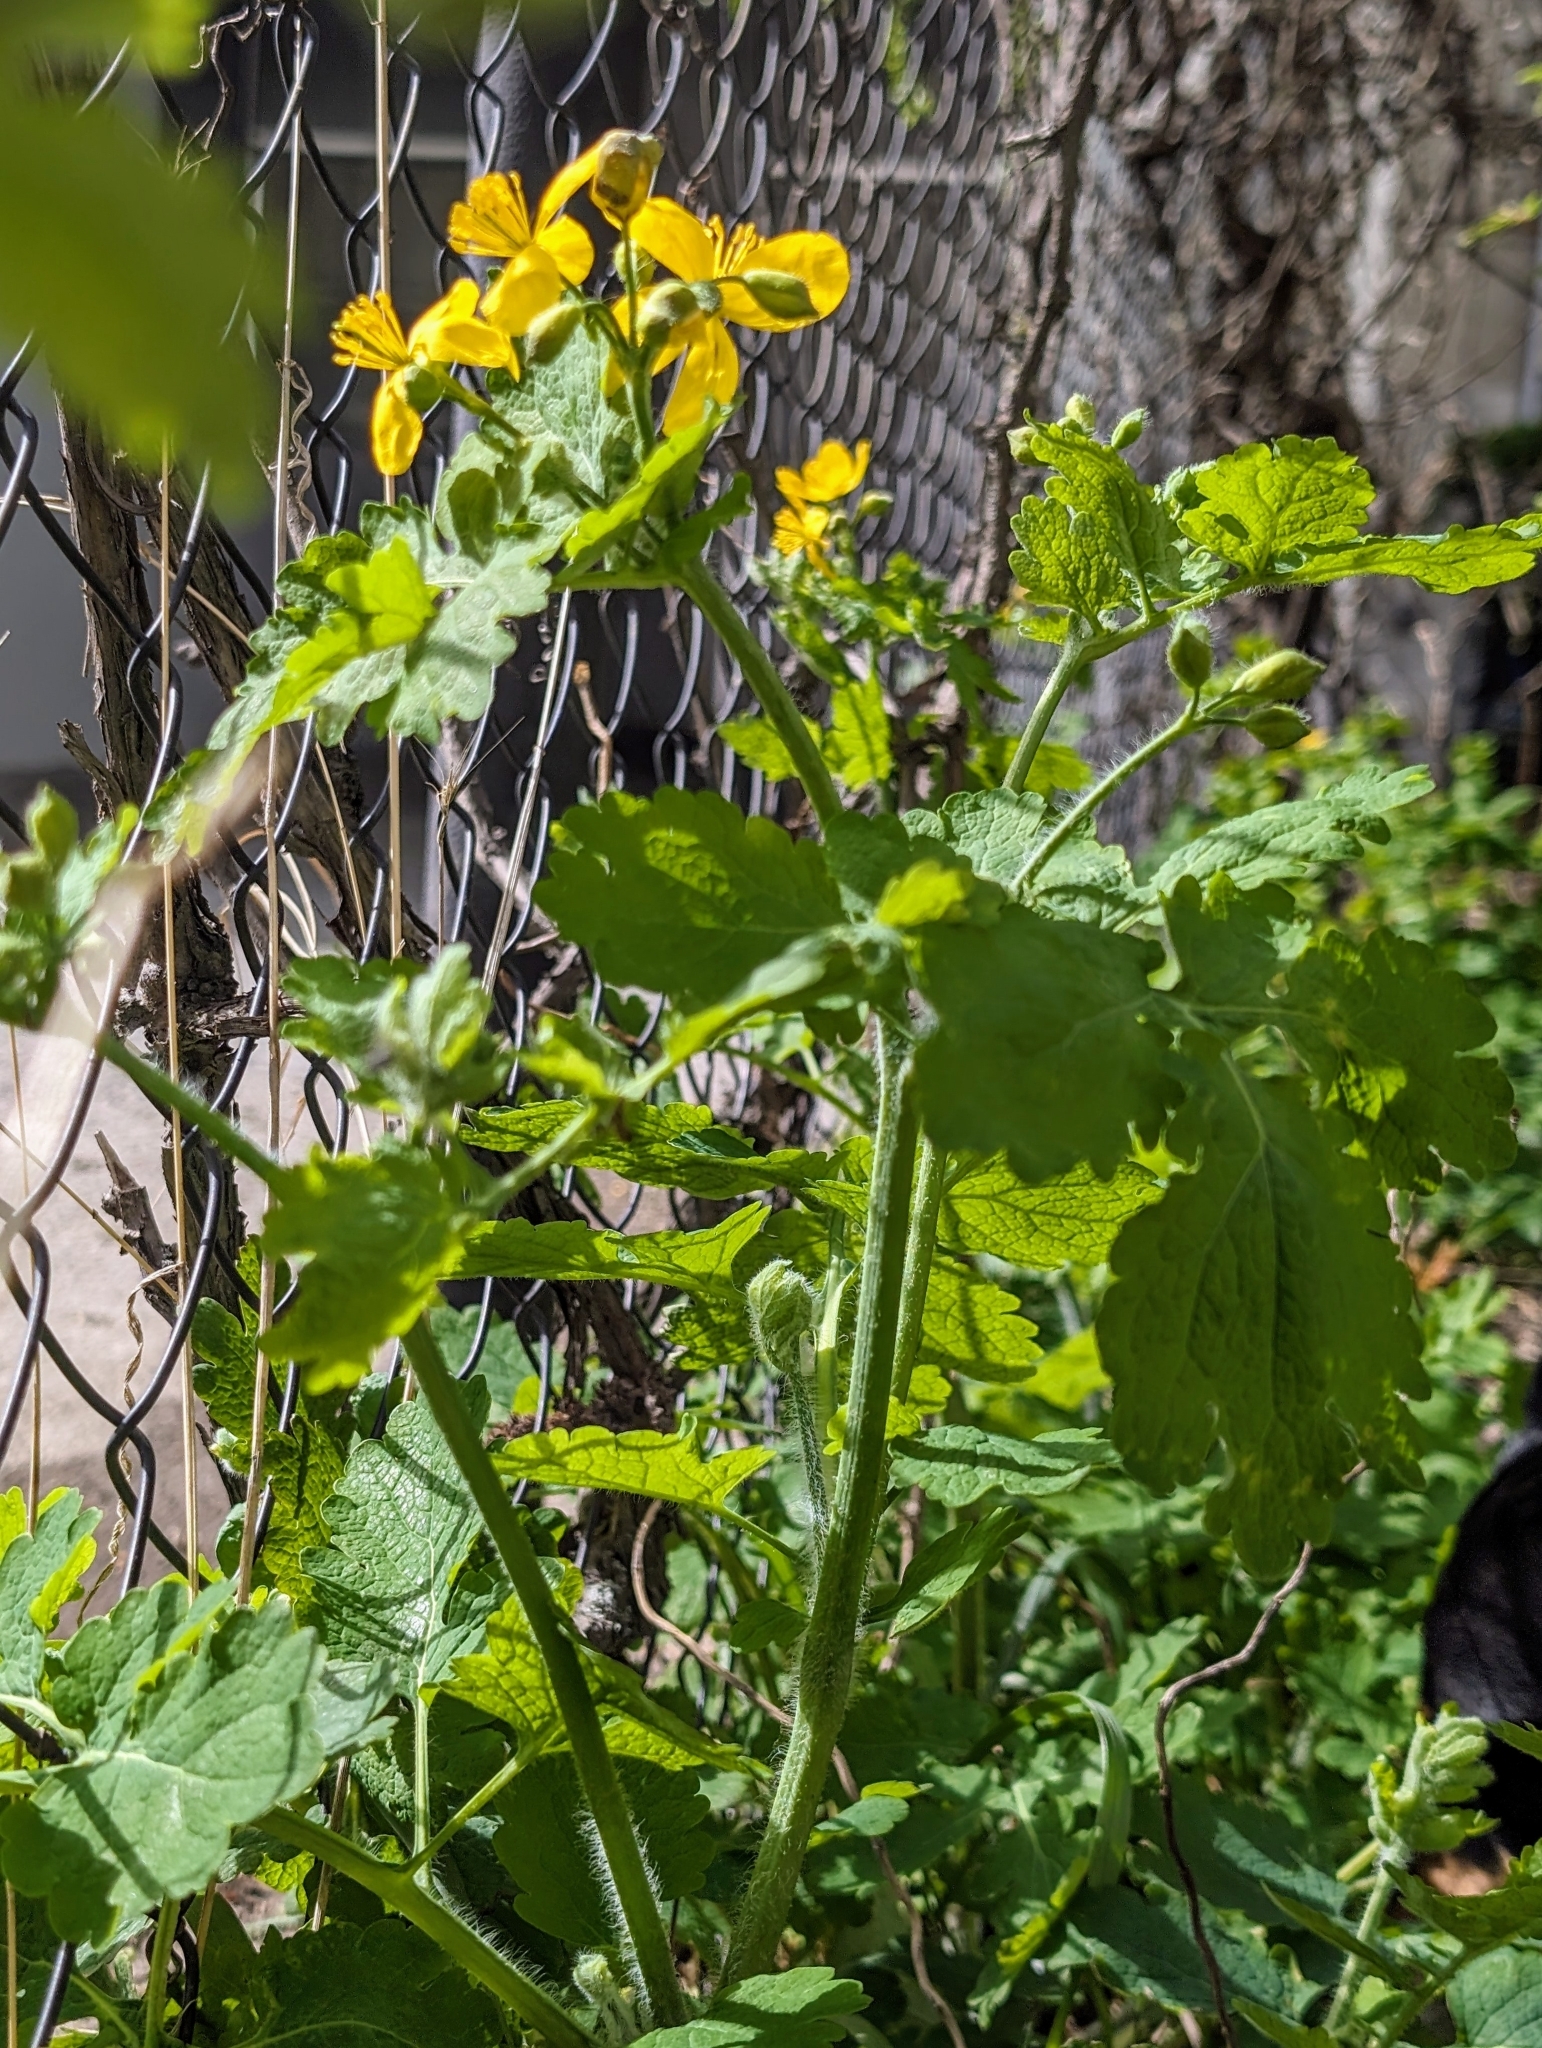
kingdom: Plantae
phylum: Tracheophyta
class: Magnoliopsida
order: Ranunculales
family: Papaveraceae
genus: Chelidonium
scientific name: Chelidonium majus
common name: Greater celandine
